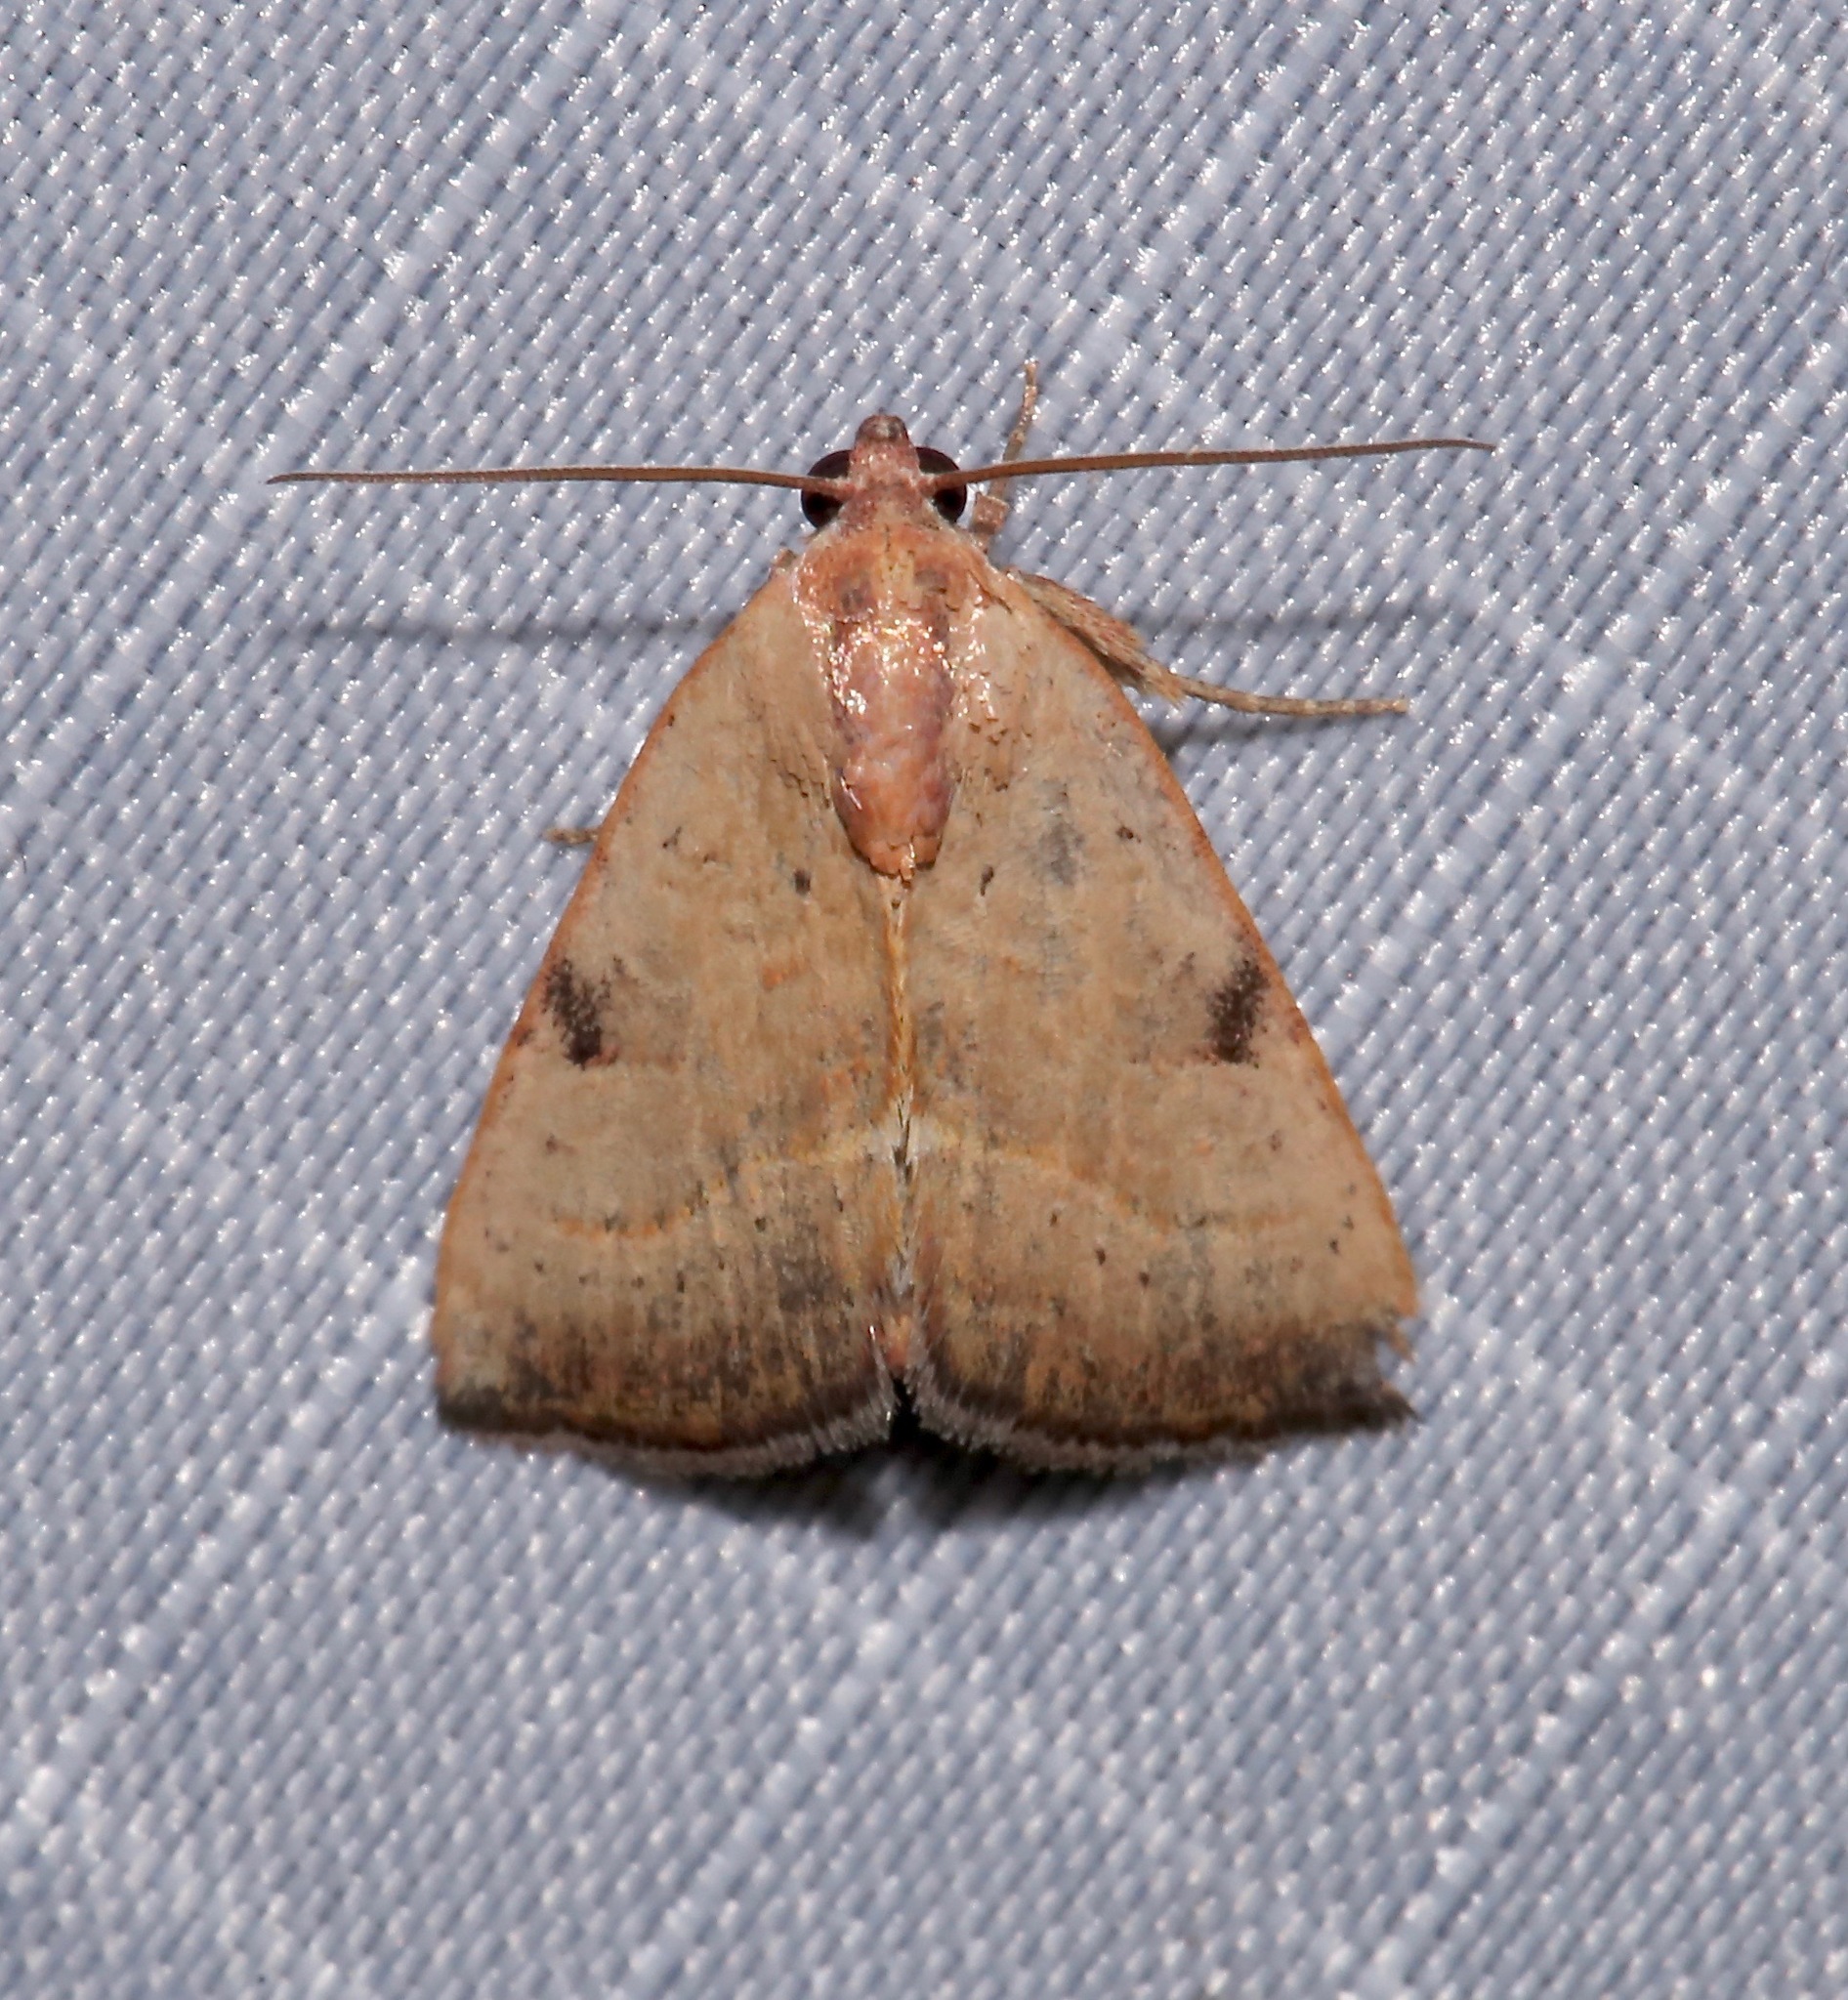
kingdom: Animalia
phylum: Arthropoda
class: Insecta
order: Lepidoptera
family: Noctuidae
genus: Galgula
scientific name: Galgula partita
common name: Wedgeling
